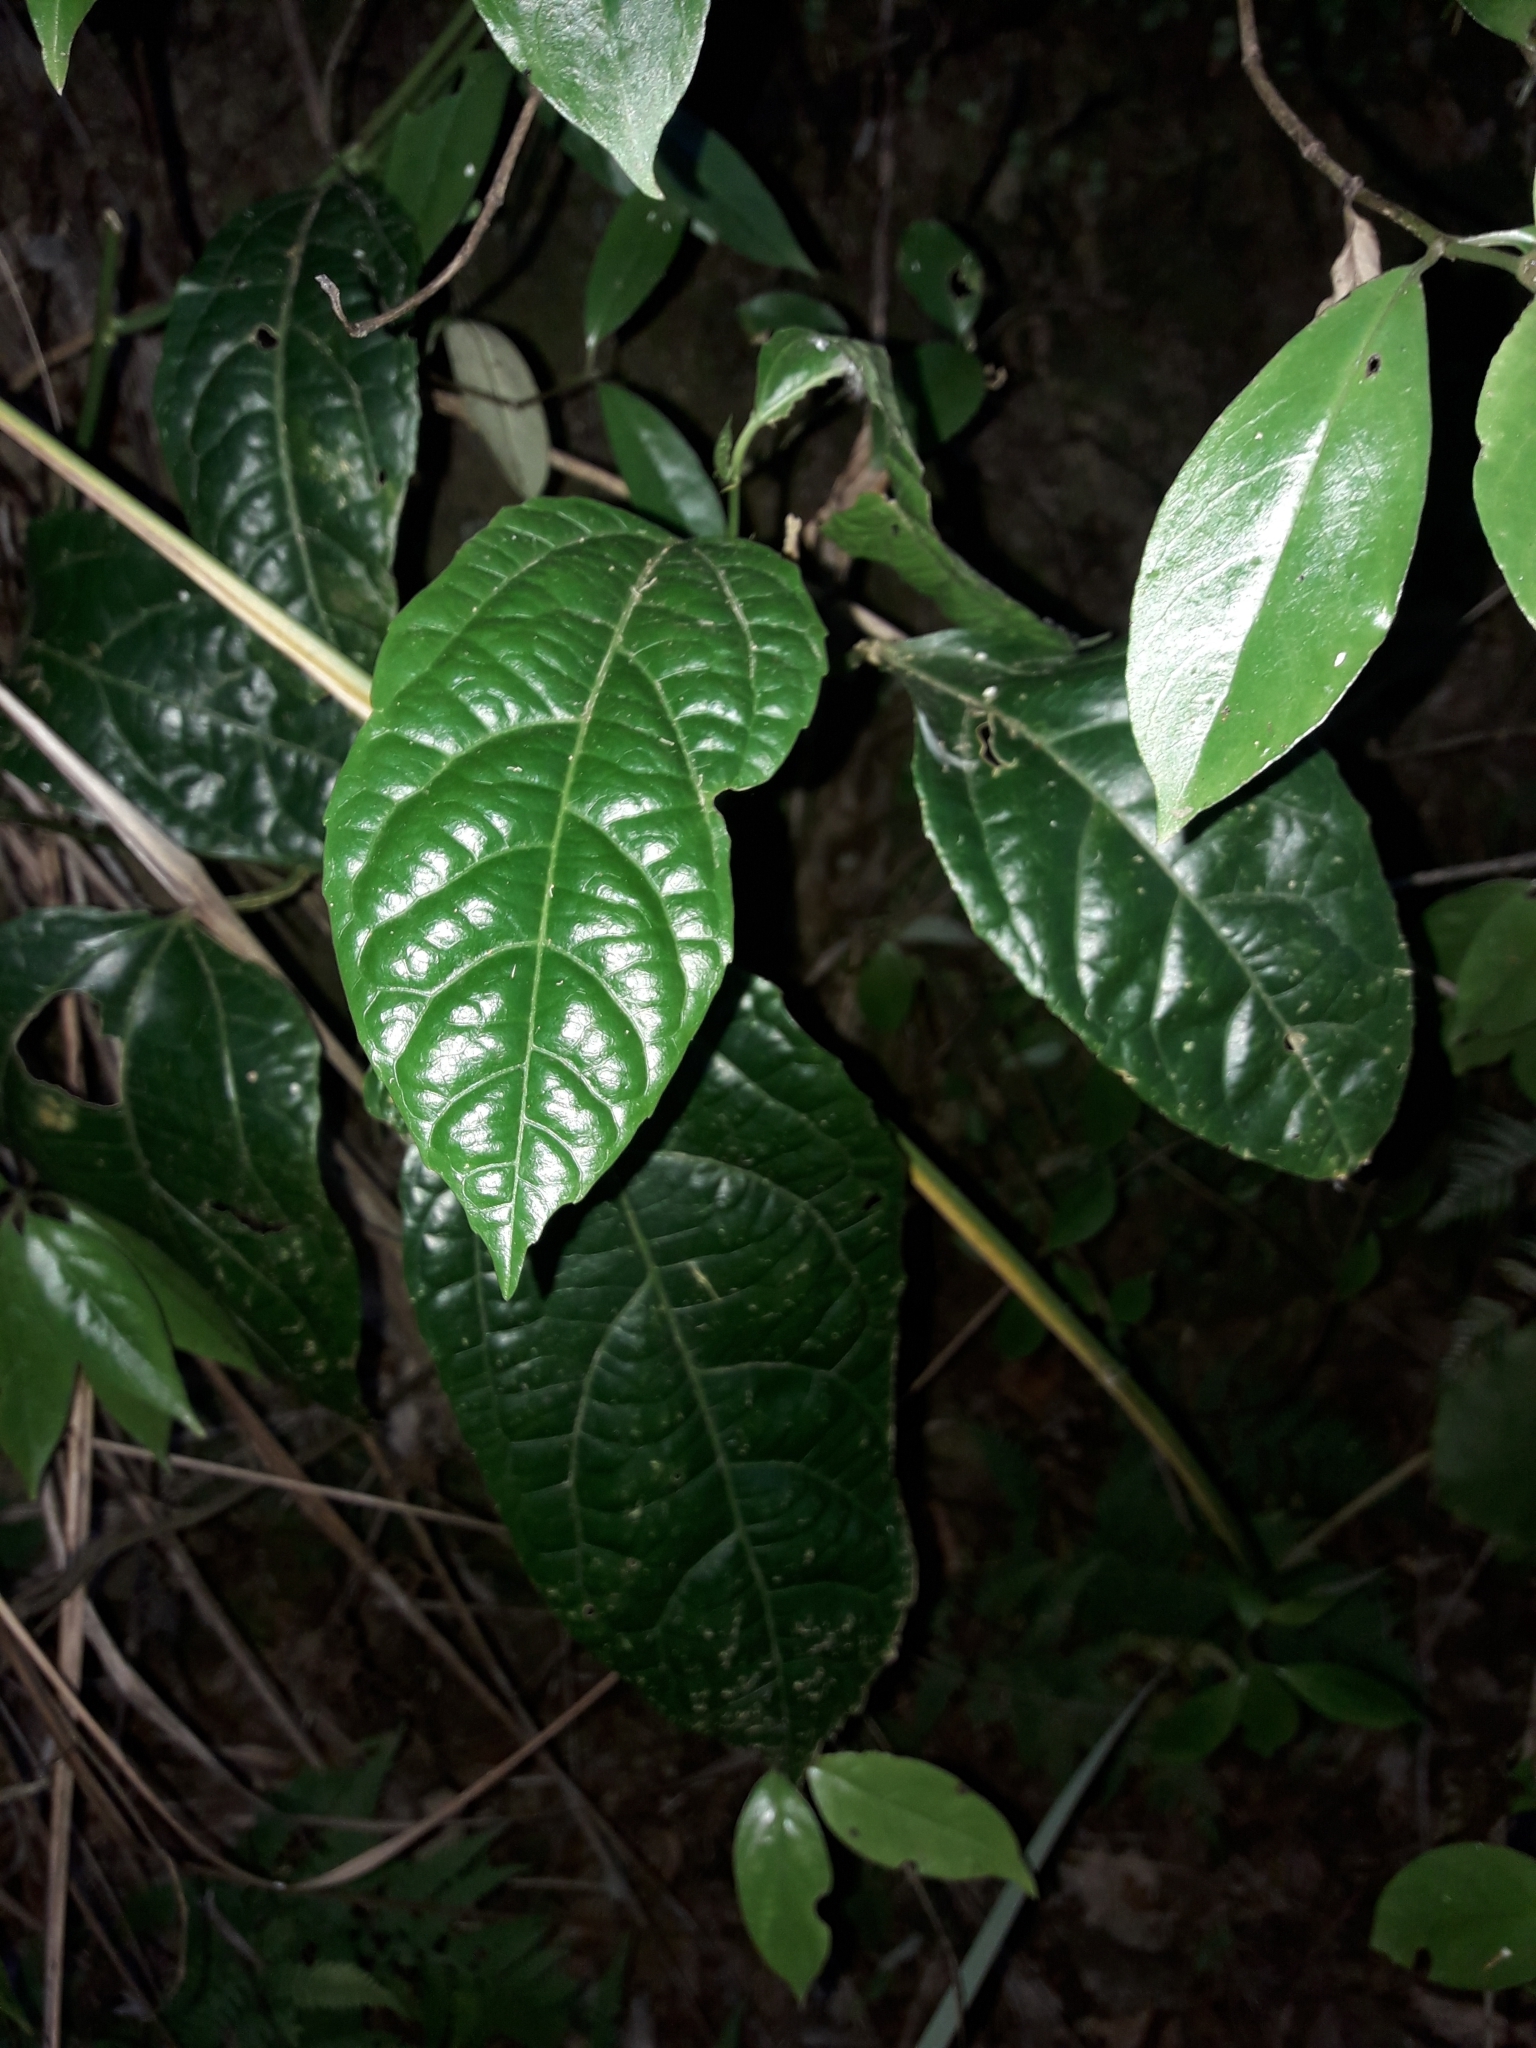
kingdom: Plantae
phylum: Tracheophyta
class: Magnoliopsida
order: Malpighiales
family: Passifloraceae
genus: Passiflora
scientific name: Passiflora edulis
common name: Purple granadilla
